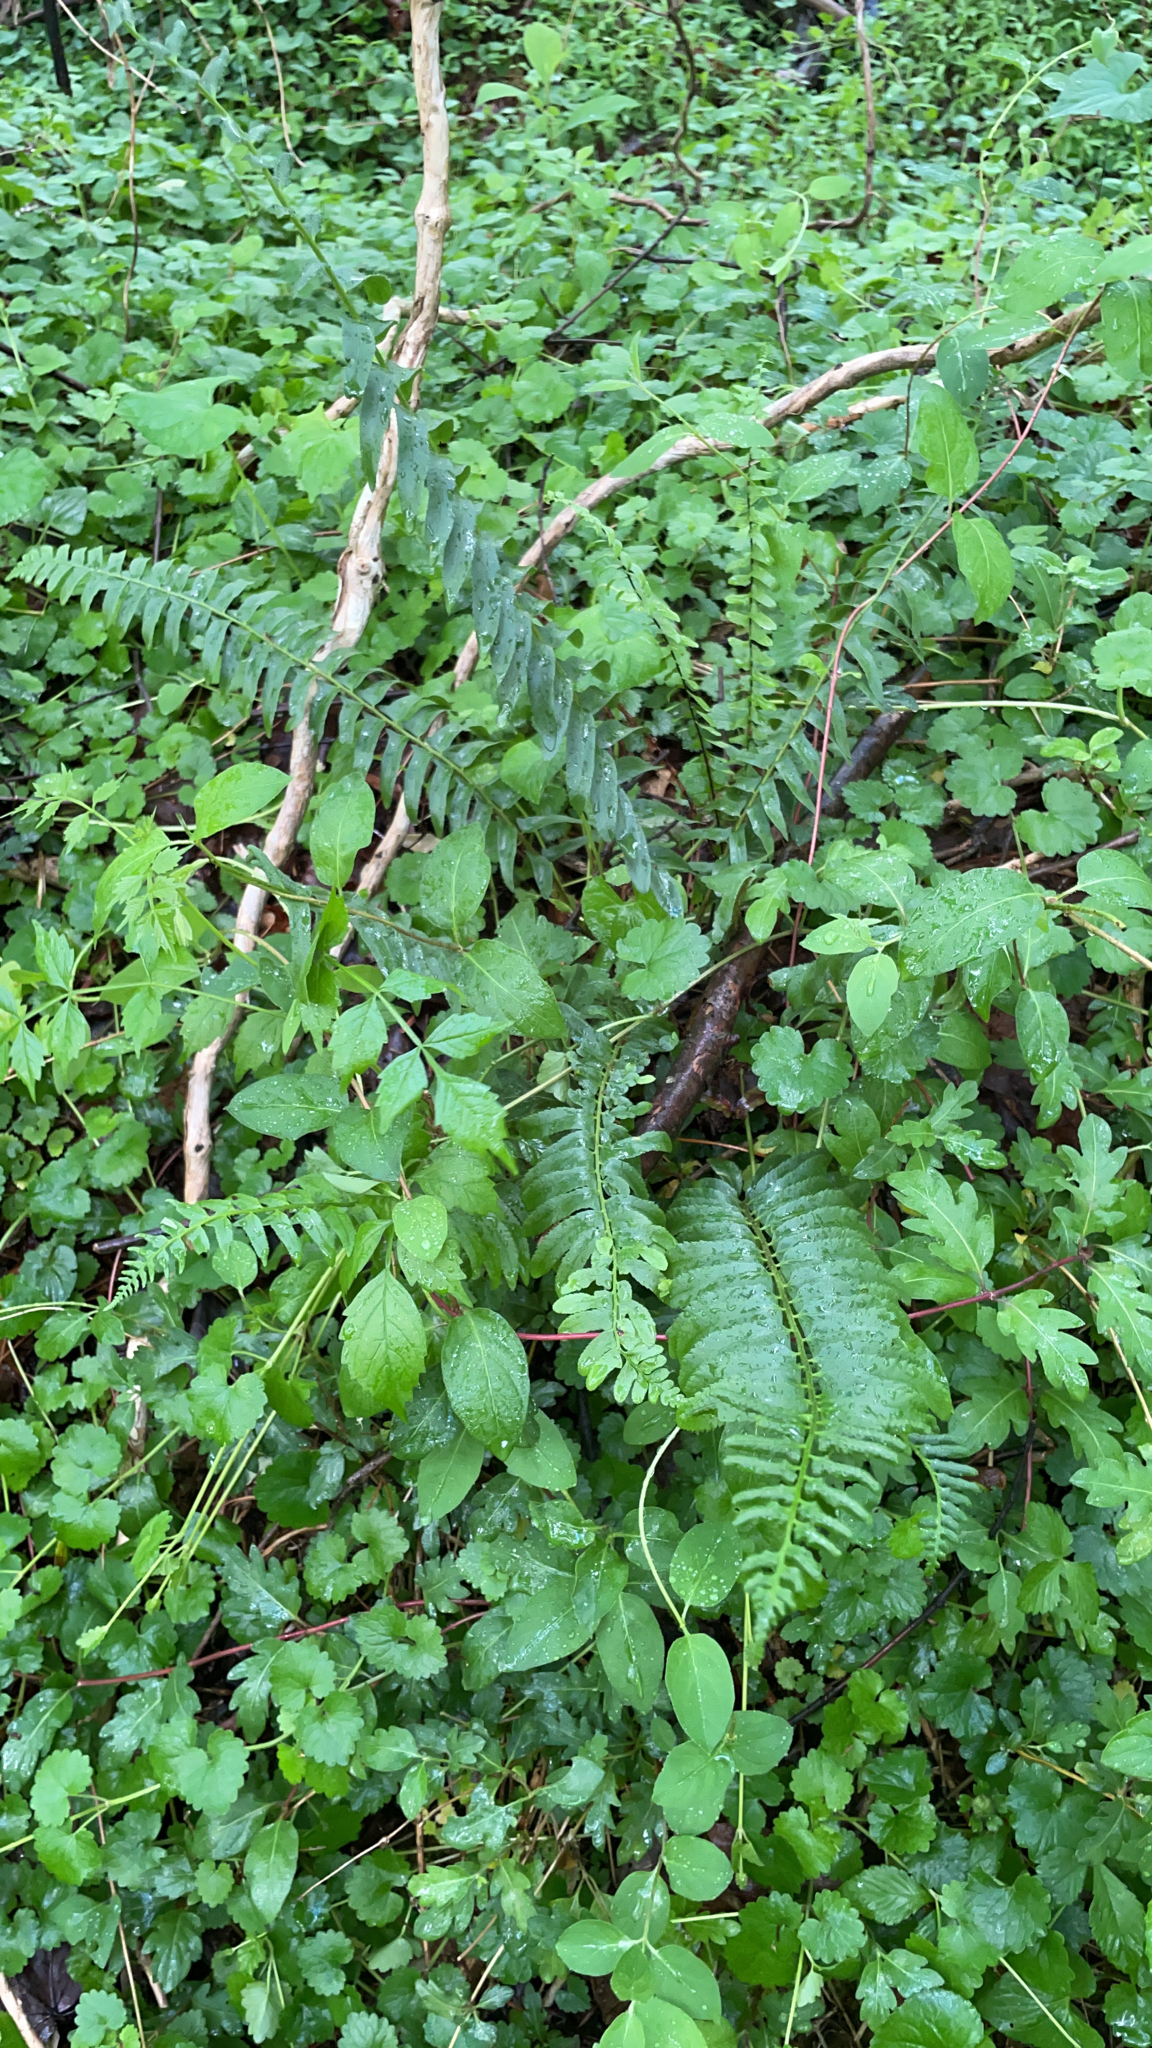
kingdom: Plantae
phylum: Tracheophyta
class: Polypodiopsida
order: Polypodiales
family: Dryopteridaceae
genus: Polystichum
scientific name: Polystichum acrostichoides
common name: Christmas fern
